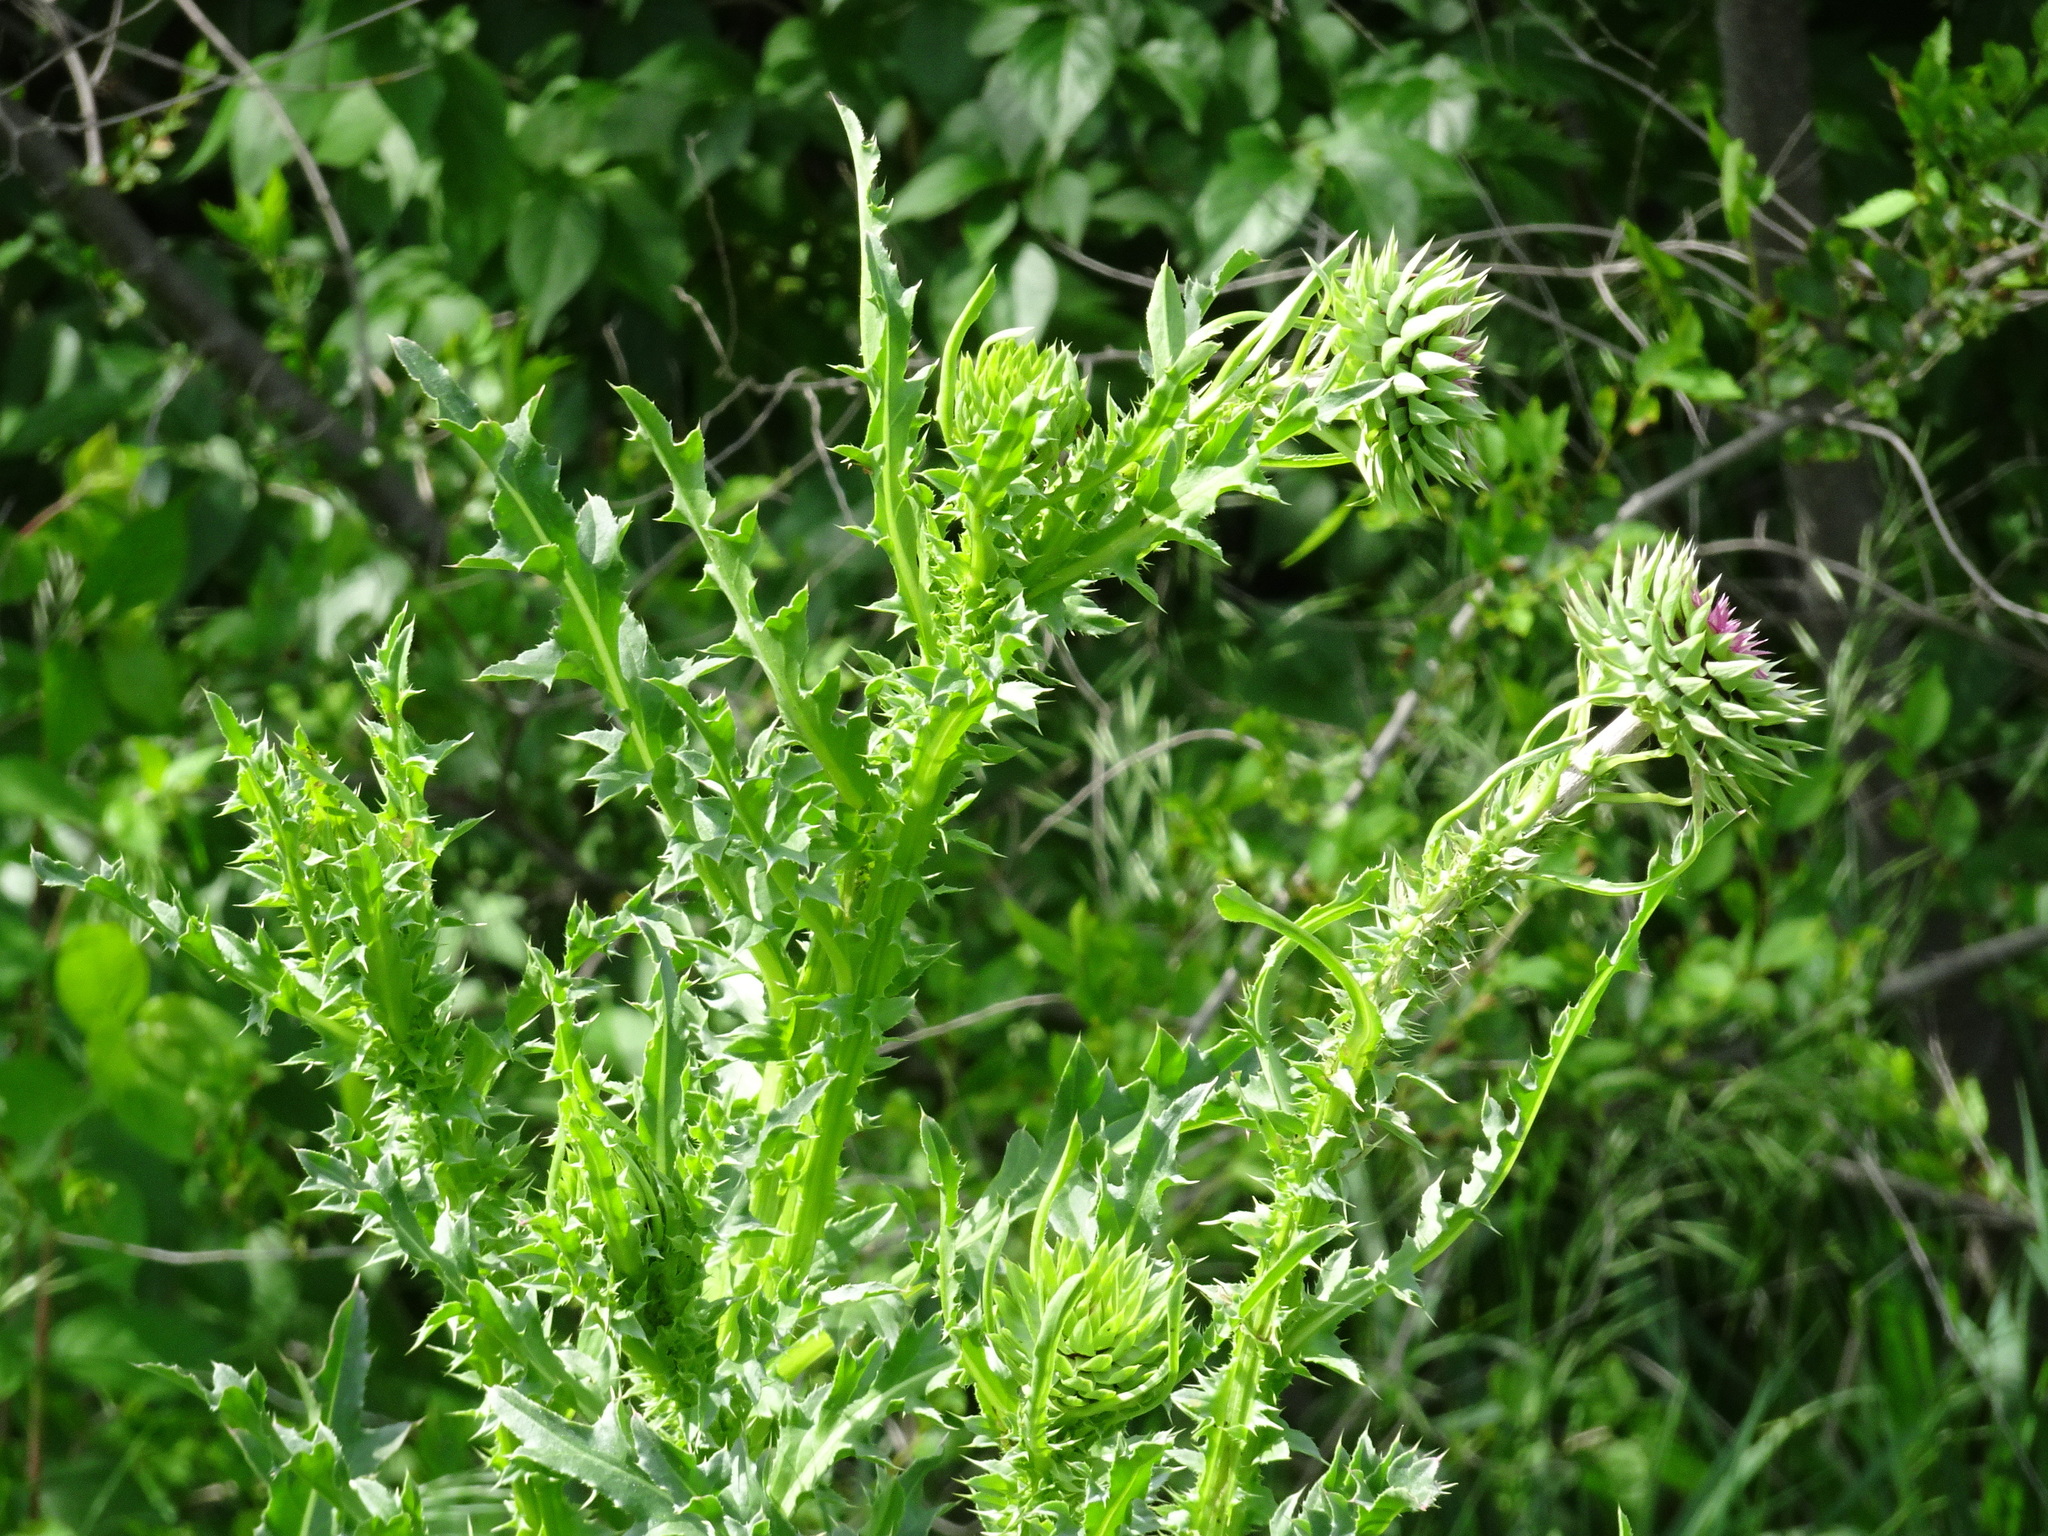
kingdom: Plantae
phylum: Tracheophyta
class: Magnoliopsida
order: Asterales
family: Asteraceae
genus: Carduus
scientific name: Carduus nutans
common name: Musk thistle
